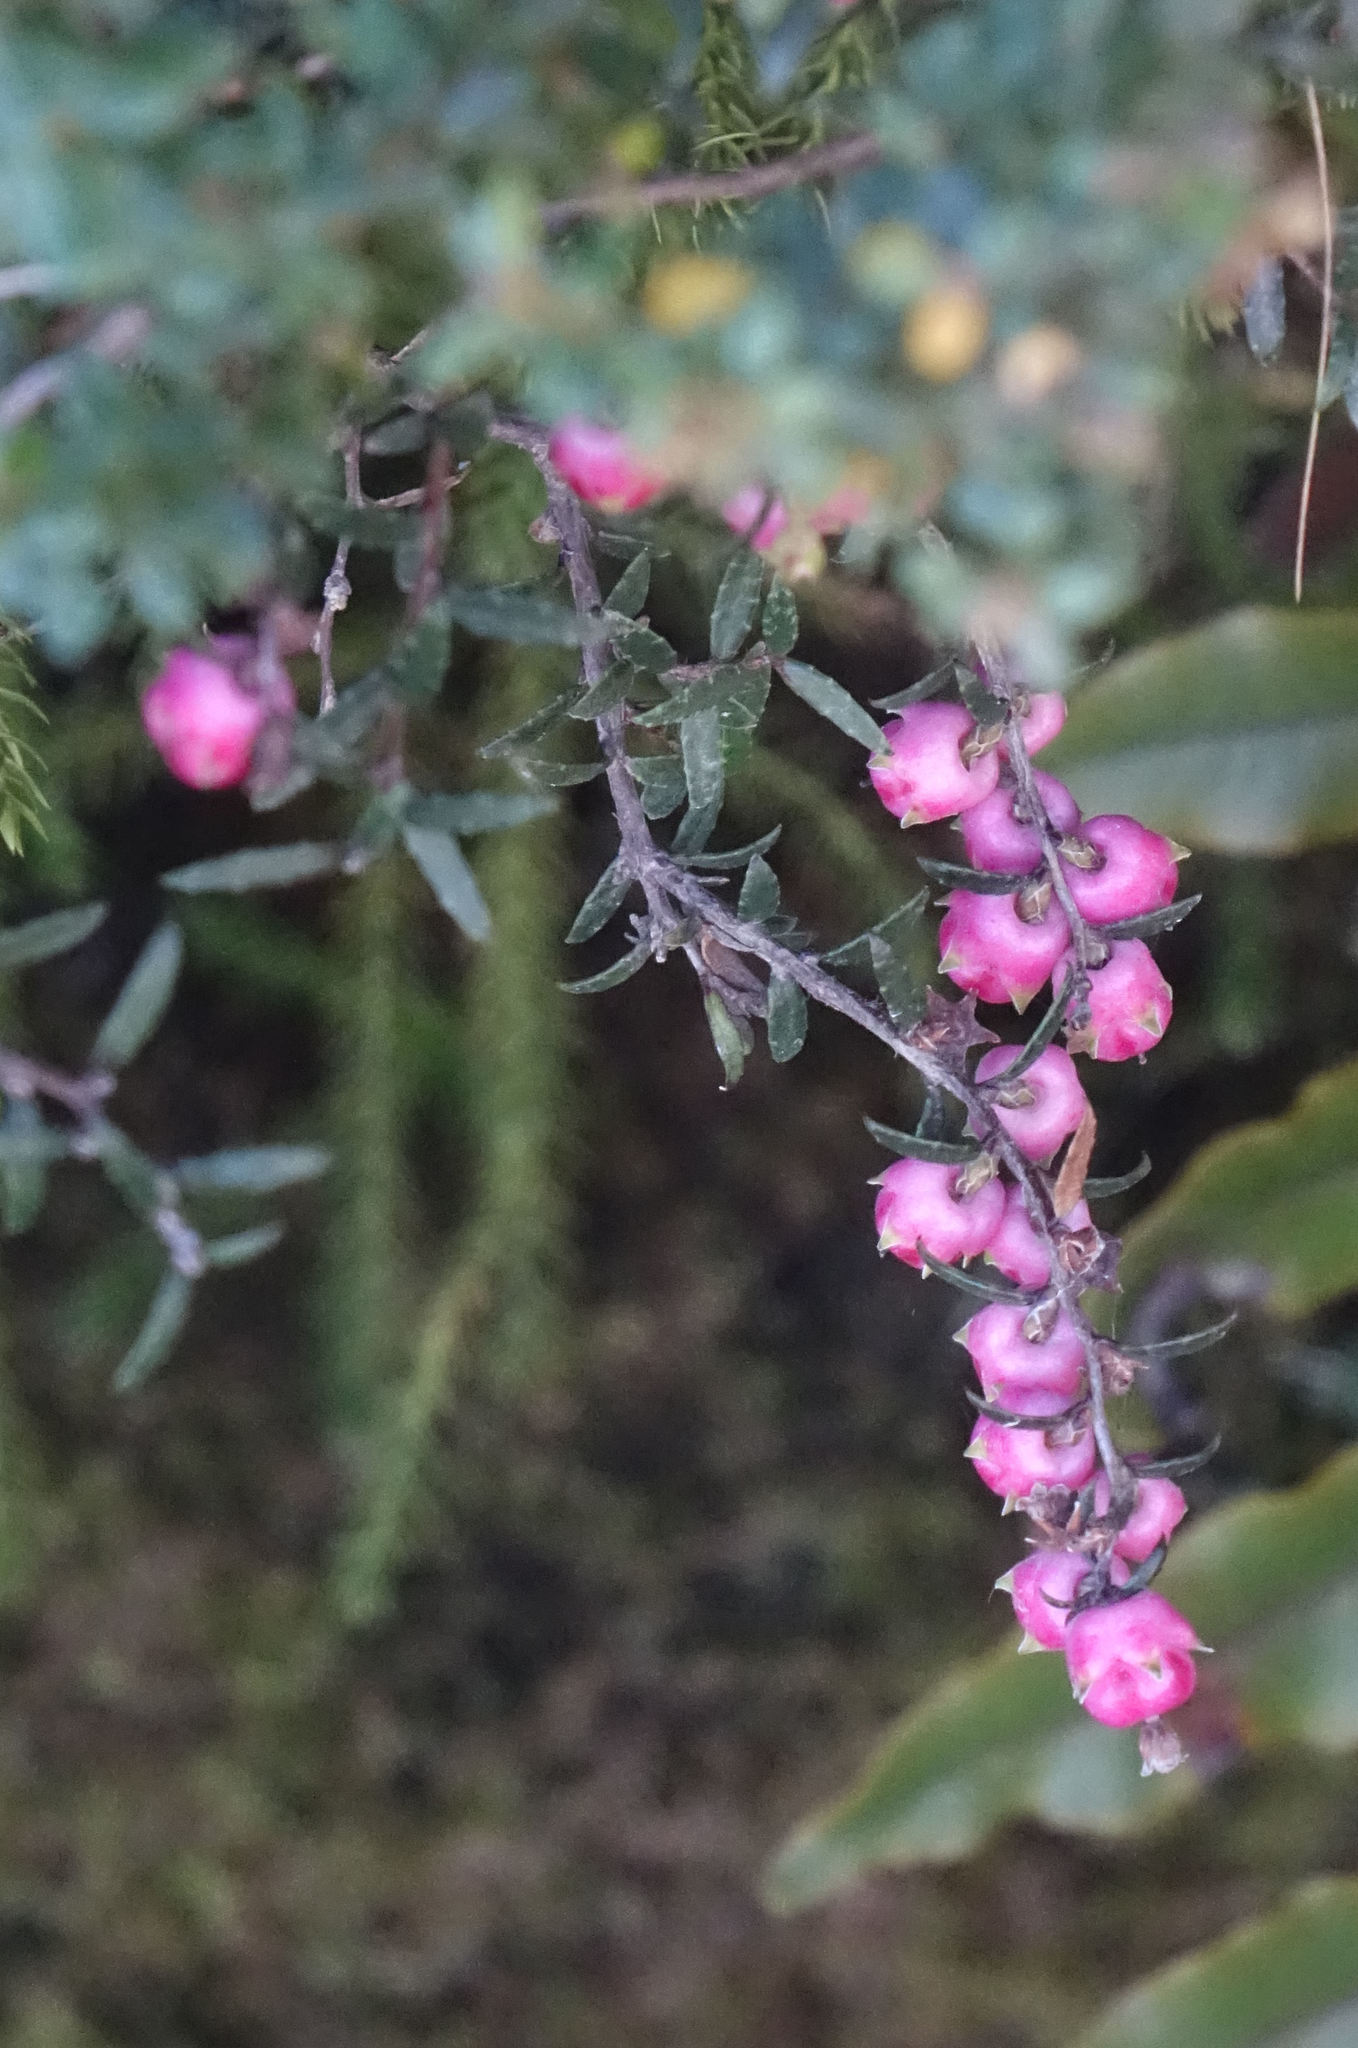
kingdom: Plantae
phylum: Tracheophyta
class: Magnoliopsida
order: Ericales
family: Ericaceae
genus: Gaultheria
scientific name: Gaultheria macrostigma
